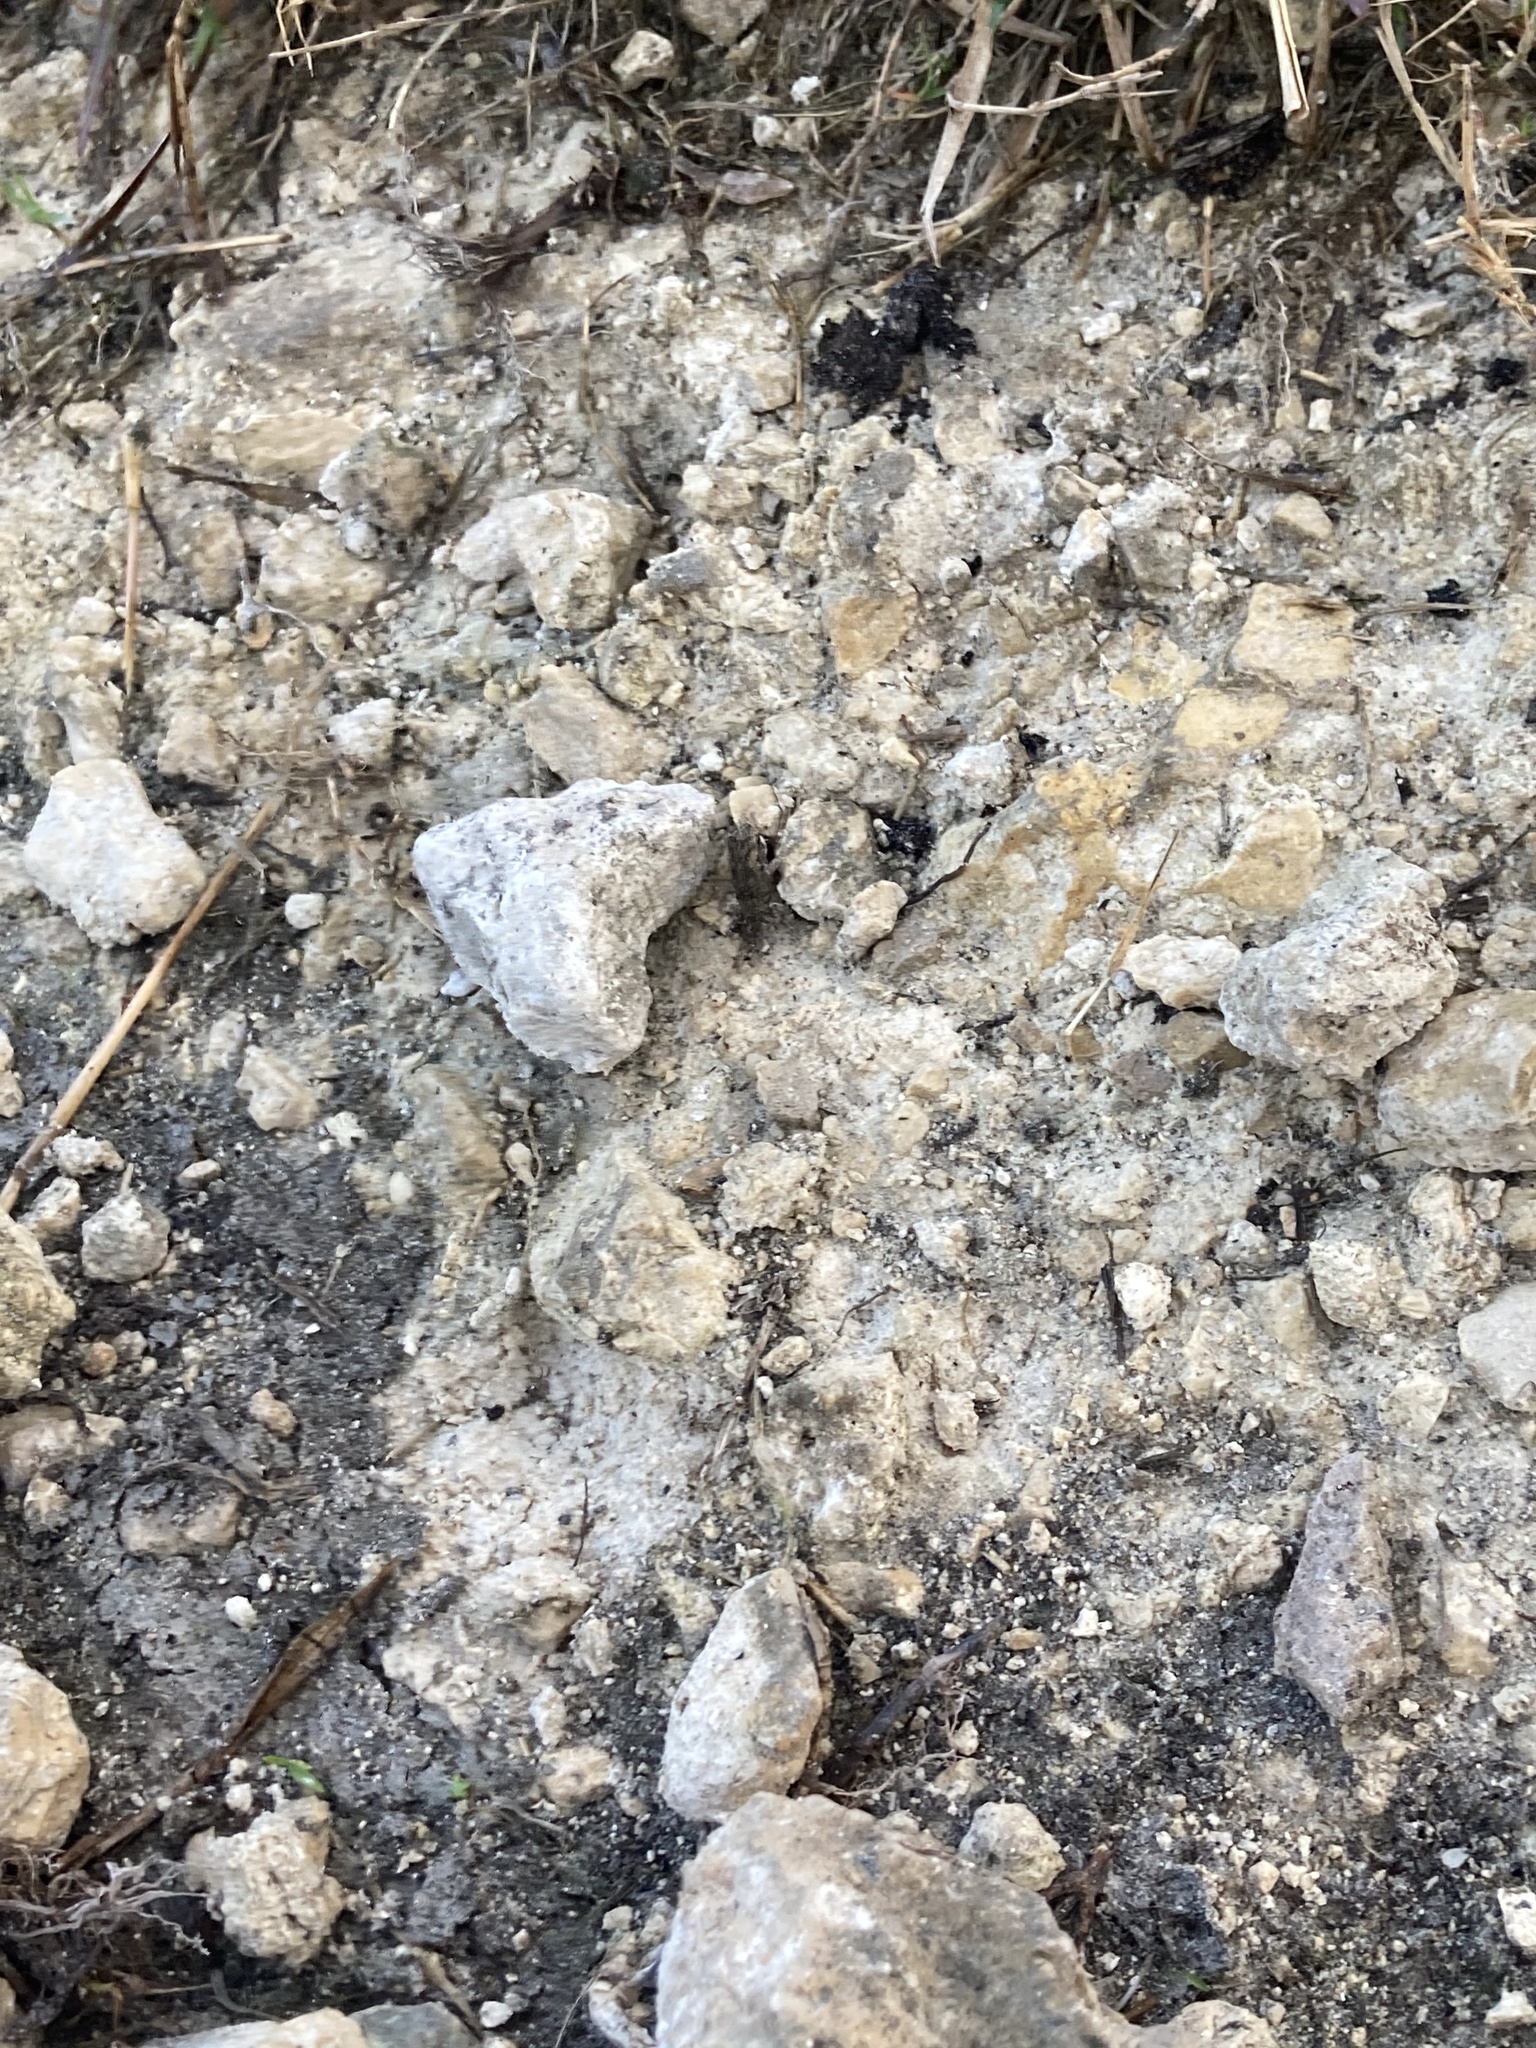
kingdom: Animalia
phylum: Chordata
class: Amphibia
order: Anura
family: Bufonidae
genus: Rhinella
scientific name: Rhinella marina
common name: Cane toad
